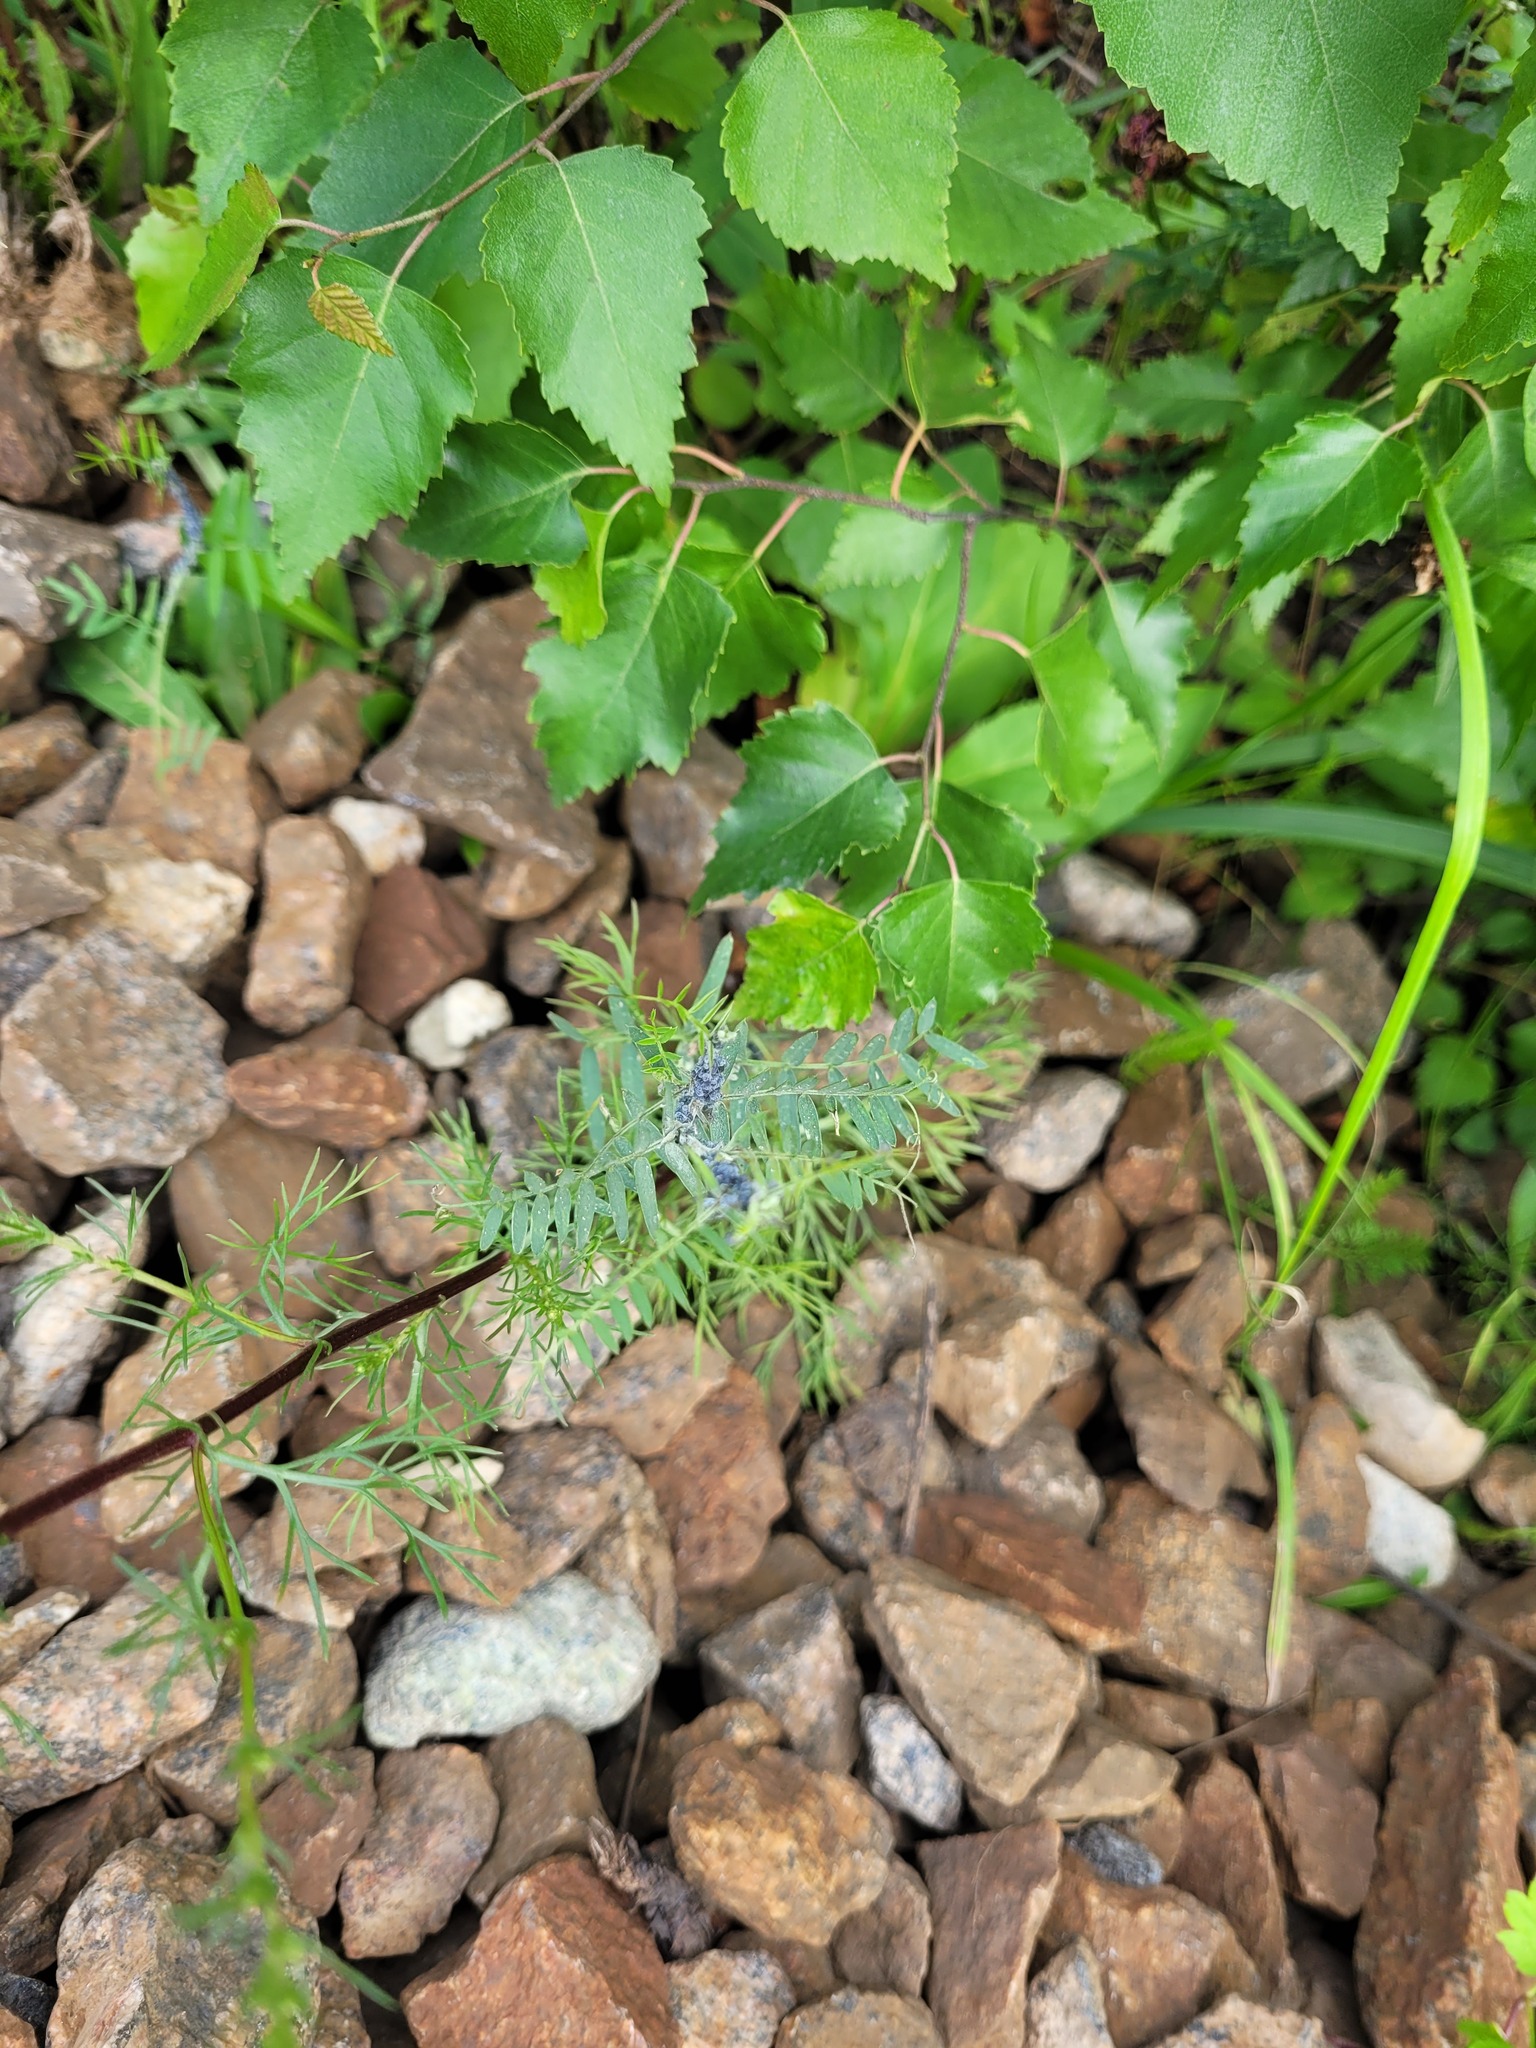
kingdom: Plantae
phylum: Tracheophyta
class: Magnoliopsida
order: Fabales
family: Fabaceae
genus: Vicia
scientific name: Vicia cracca
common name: Bird vetch
